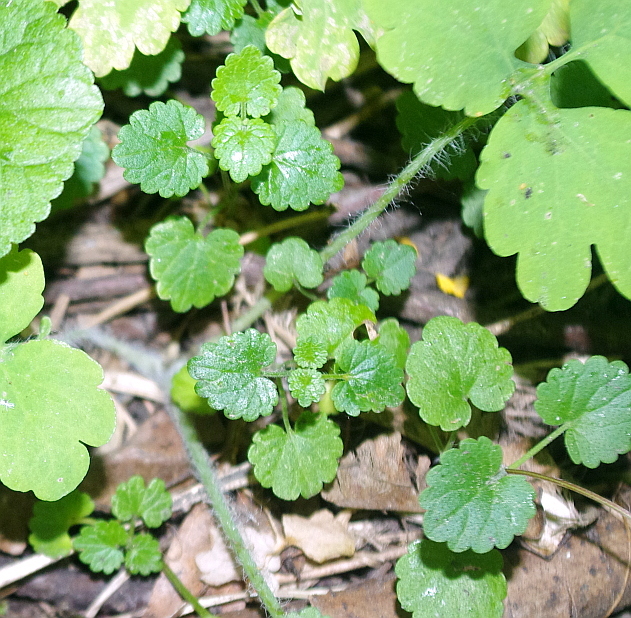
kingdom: Plantae
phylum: Tracheophyta
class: Magnoliopsida
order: Lamiales
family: Lamiaceae
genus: Glechoma
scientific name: Glechoma hederacea
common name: Ground ivy
